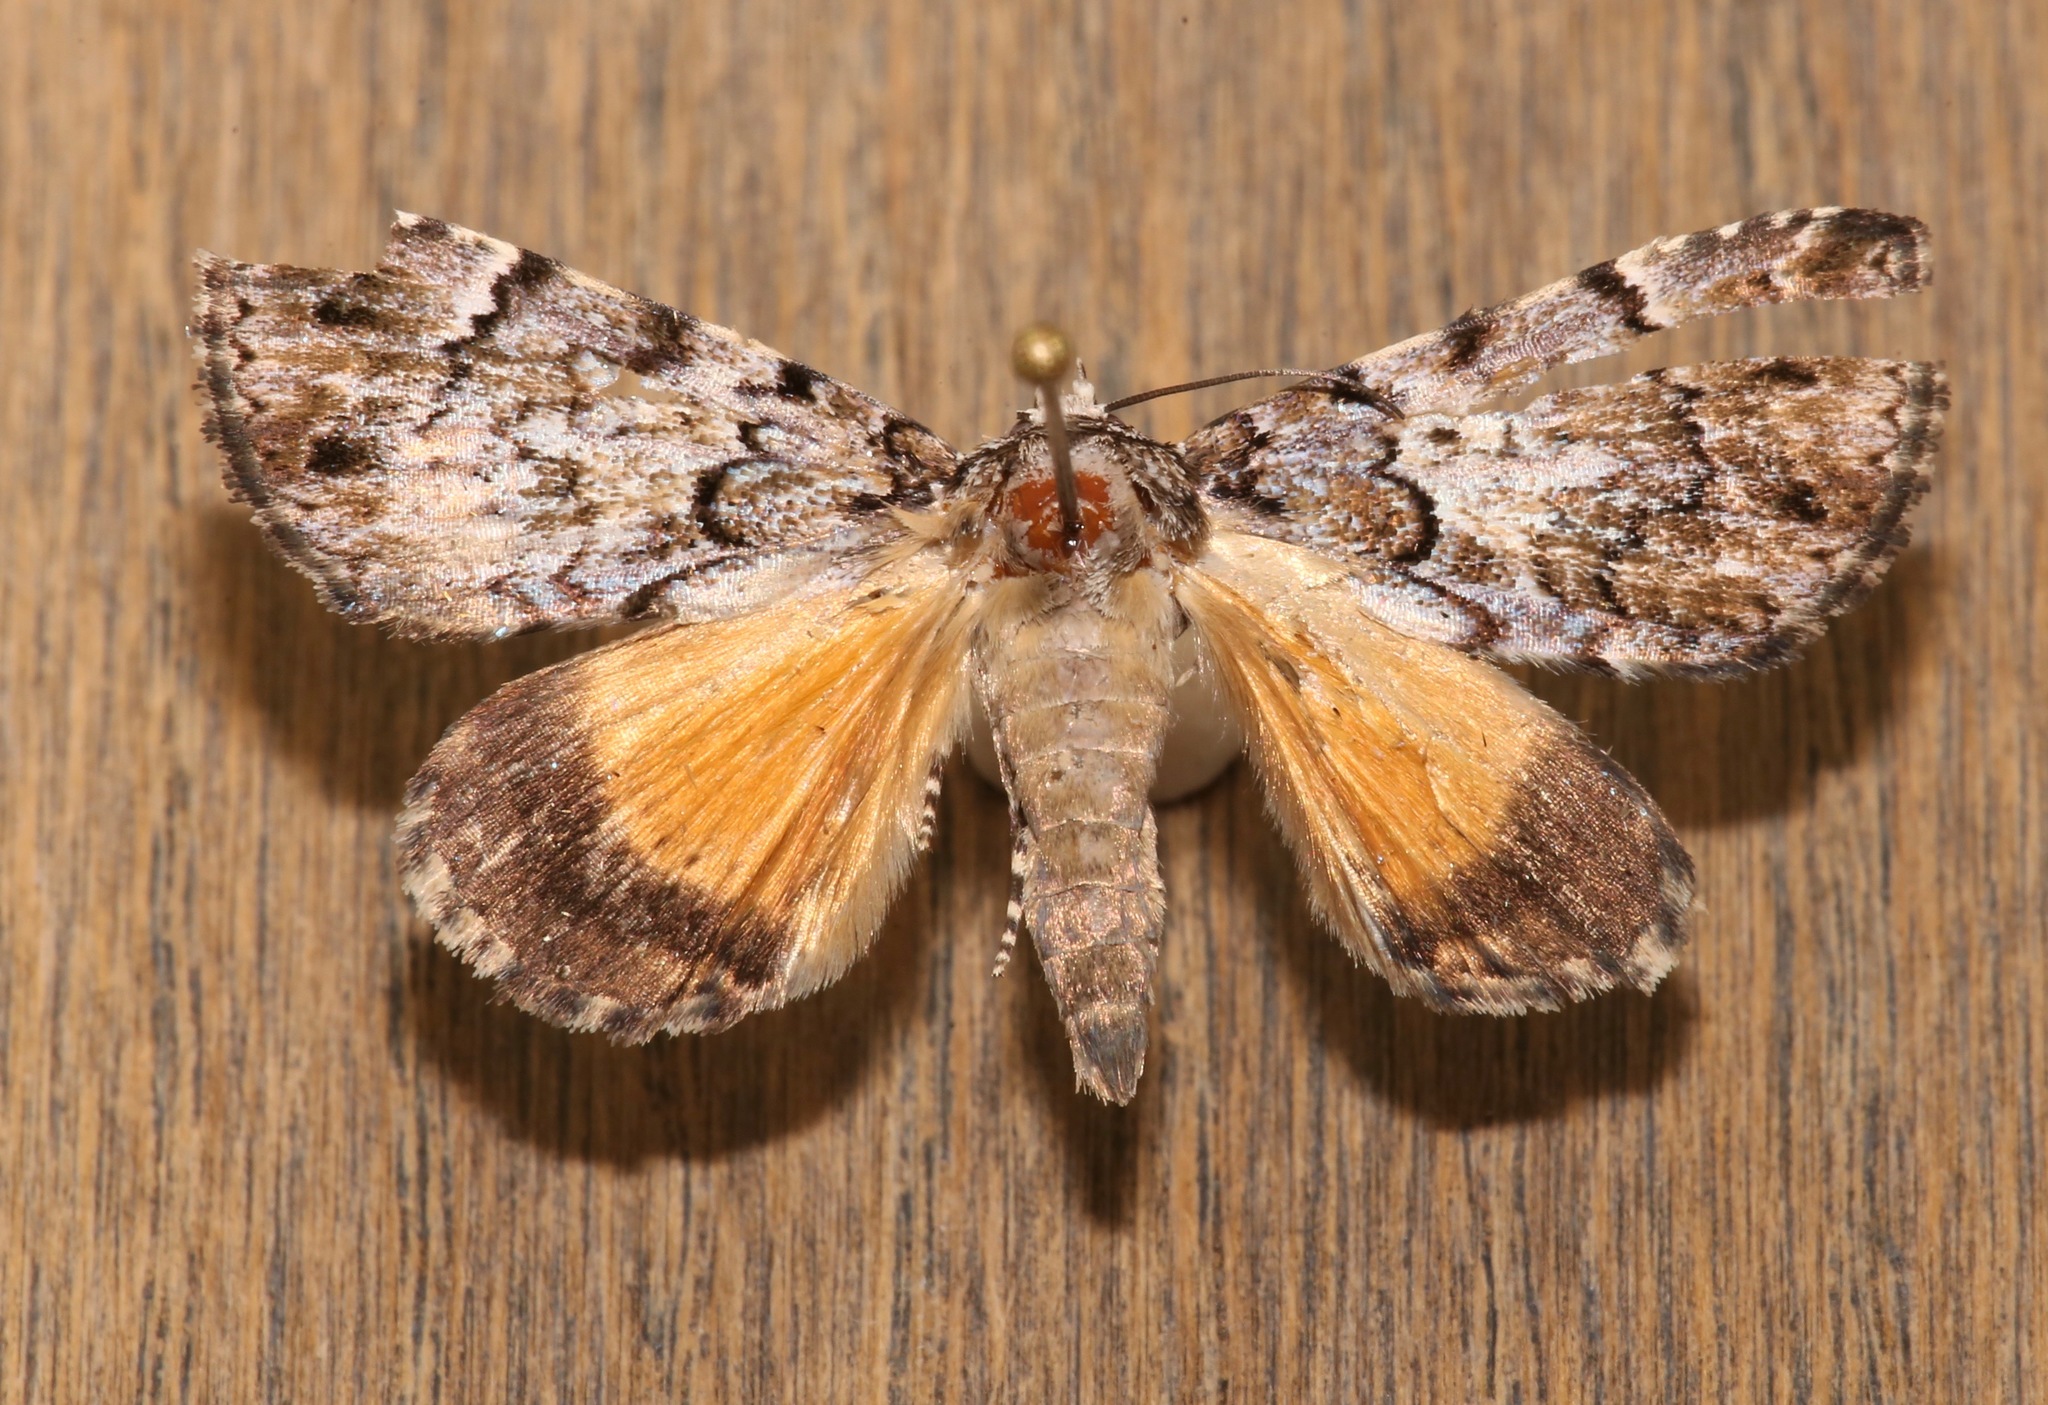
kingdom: Animalia
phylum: Arthropoda
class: Insecta
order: Lepidoptera
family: Erebidae
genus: Allotria
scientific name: Allotria elonympha
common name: False underwing
